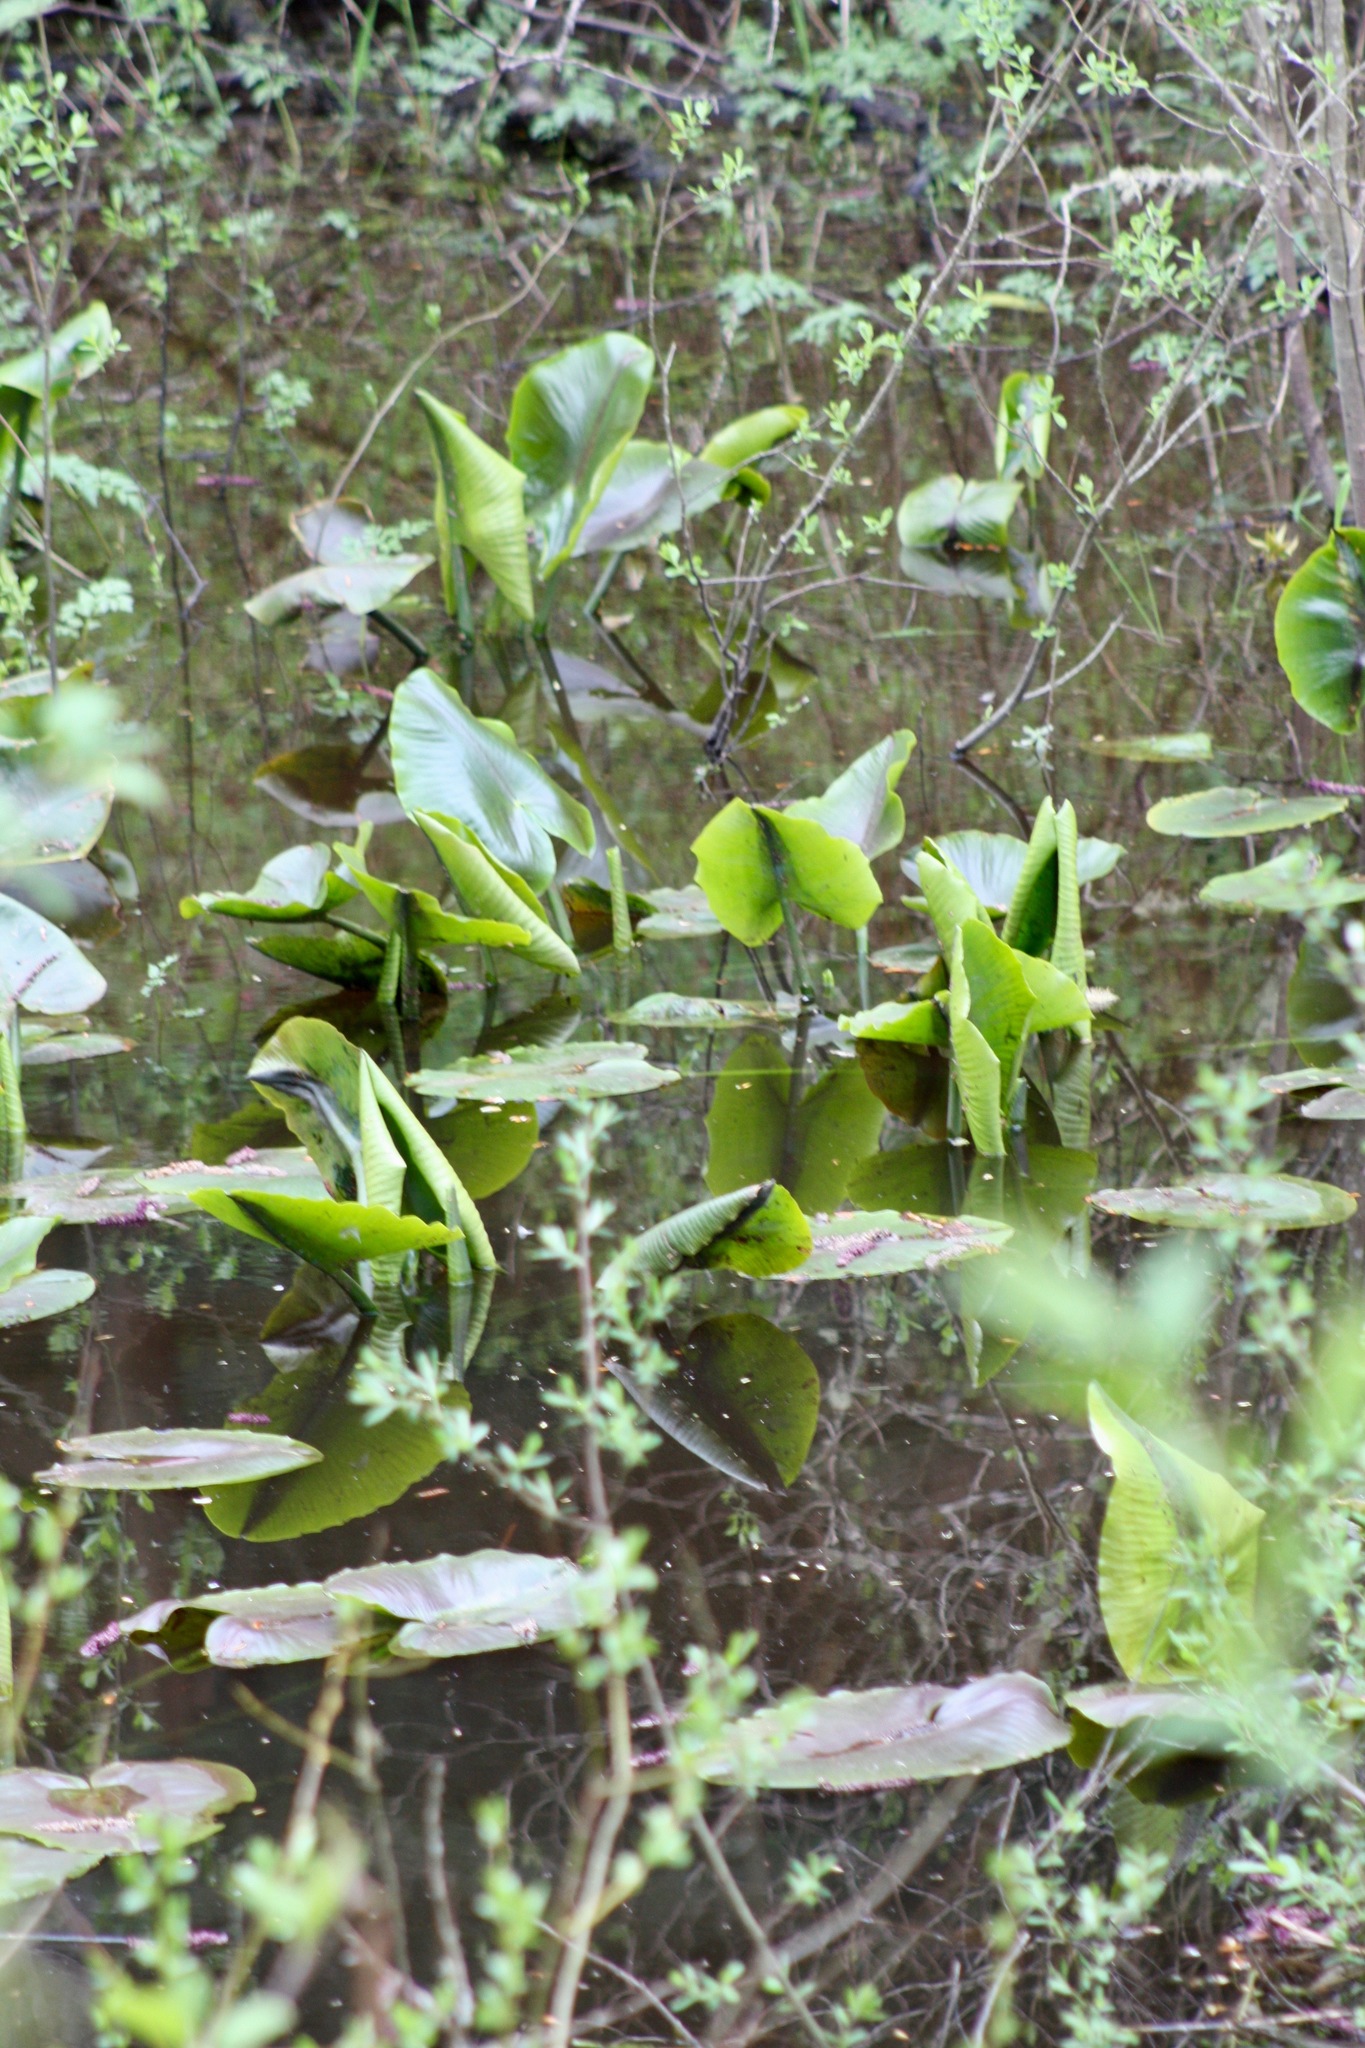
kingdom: Plantae
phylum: Tracheophyta
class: Magnoliopsida
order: Nymphaeales
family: Nymphaeaceae
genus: Nuphar
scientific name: Nuphar polysepala
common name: Rocky mountain cow-lily
